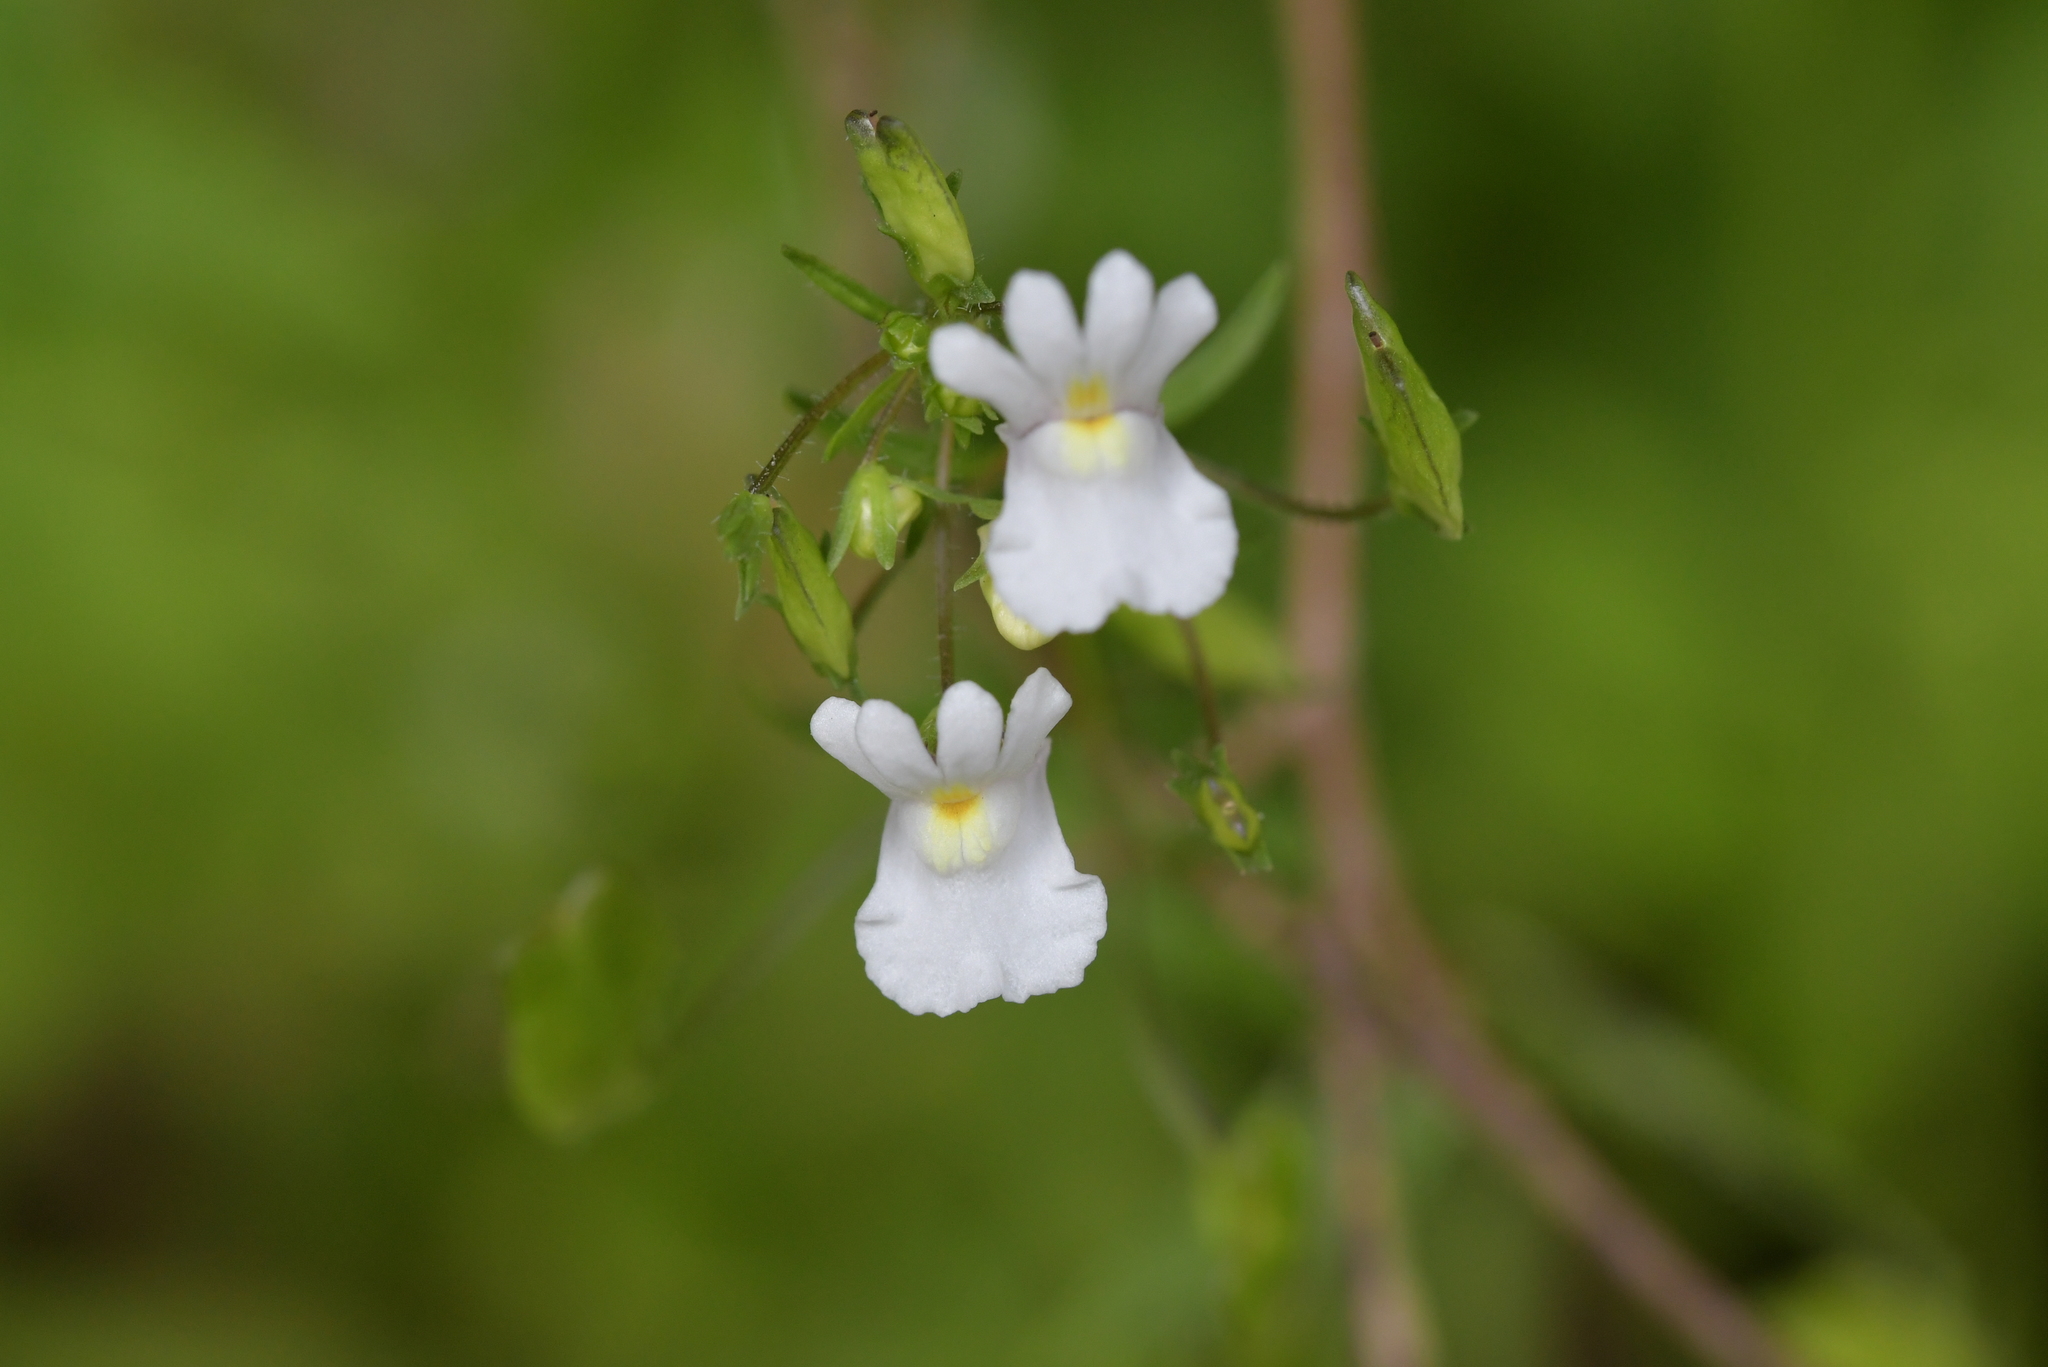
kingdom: Plantae
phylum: Tracheophyta
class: Magnoliopsida
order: Lamiales
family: Scrophulariaceae
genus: Nemesia
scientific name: Nemesia floribunda
